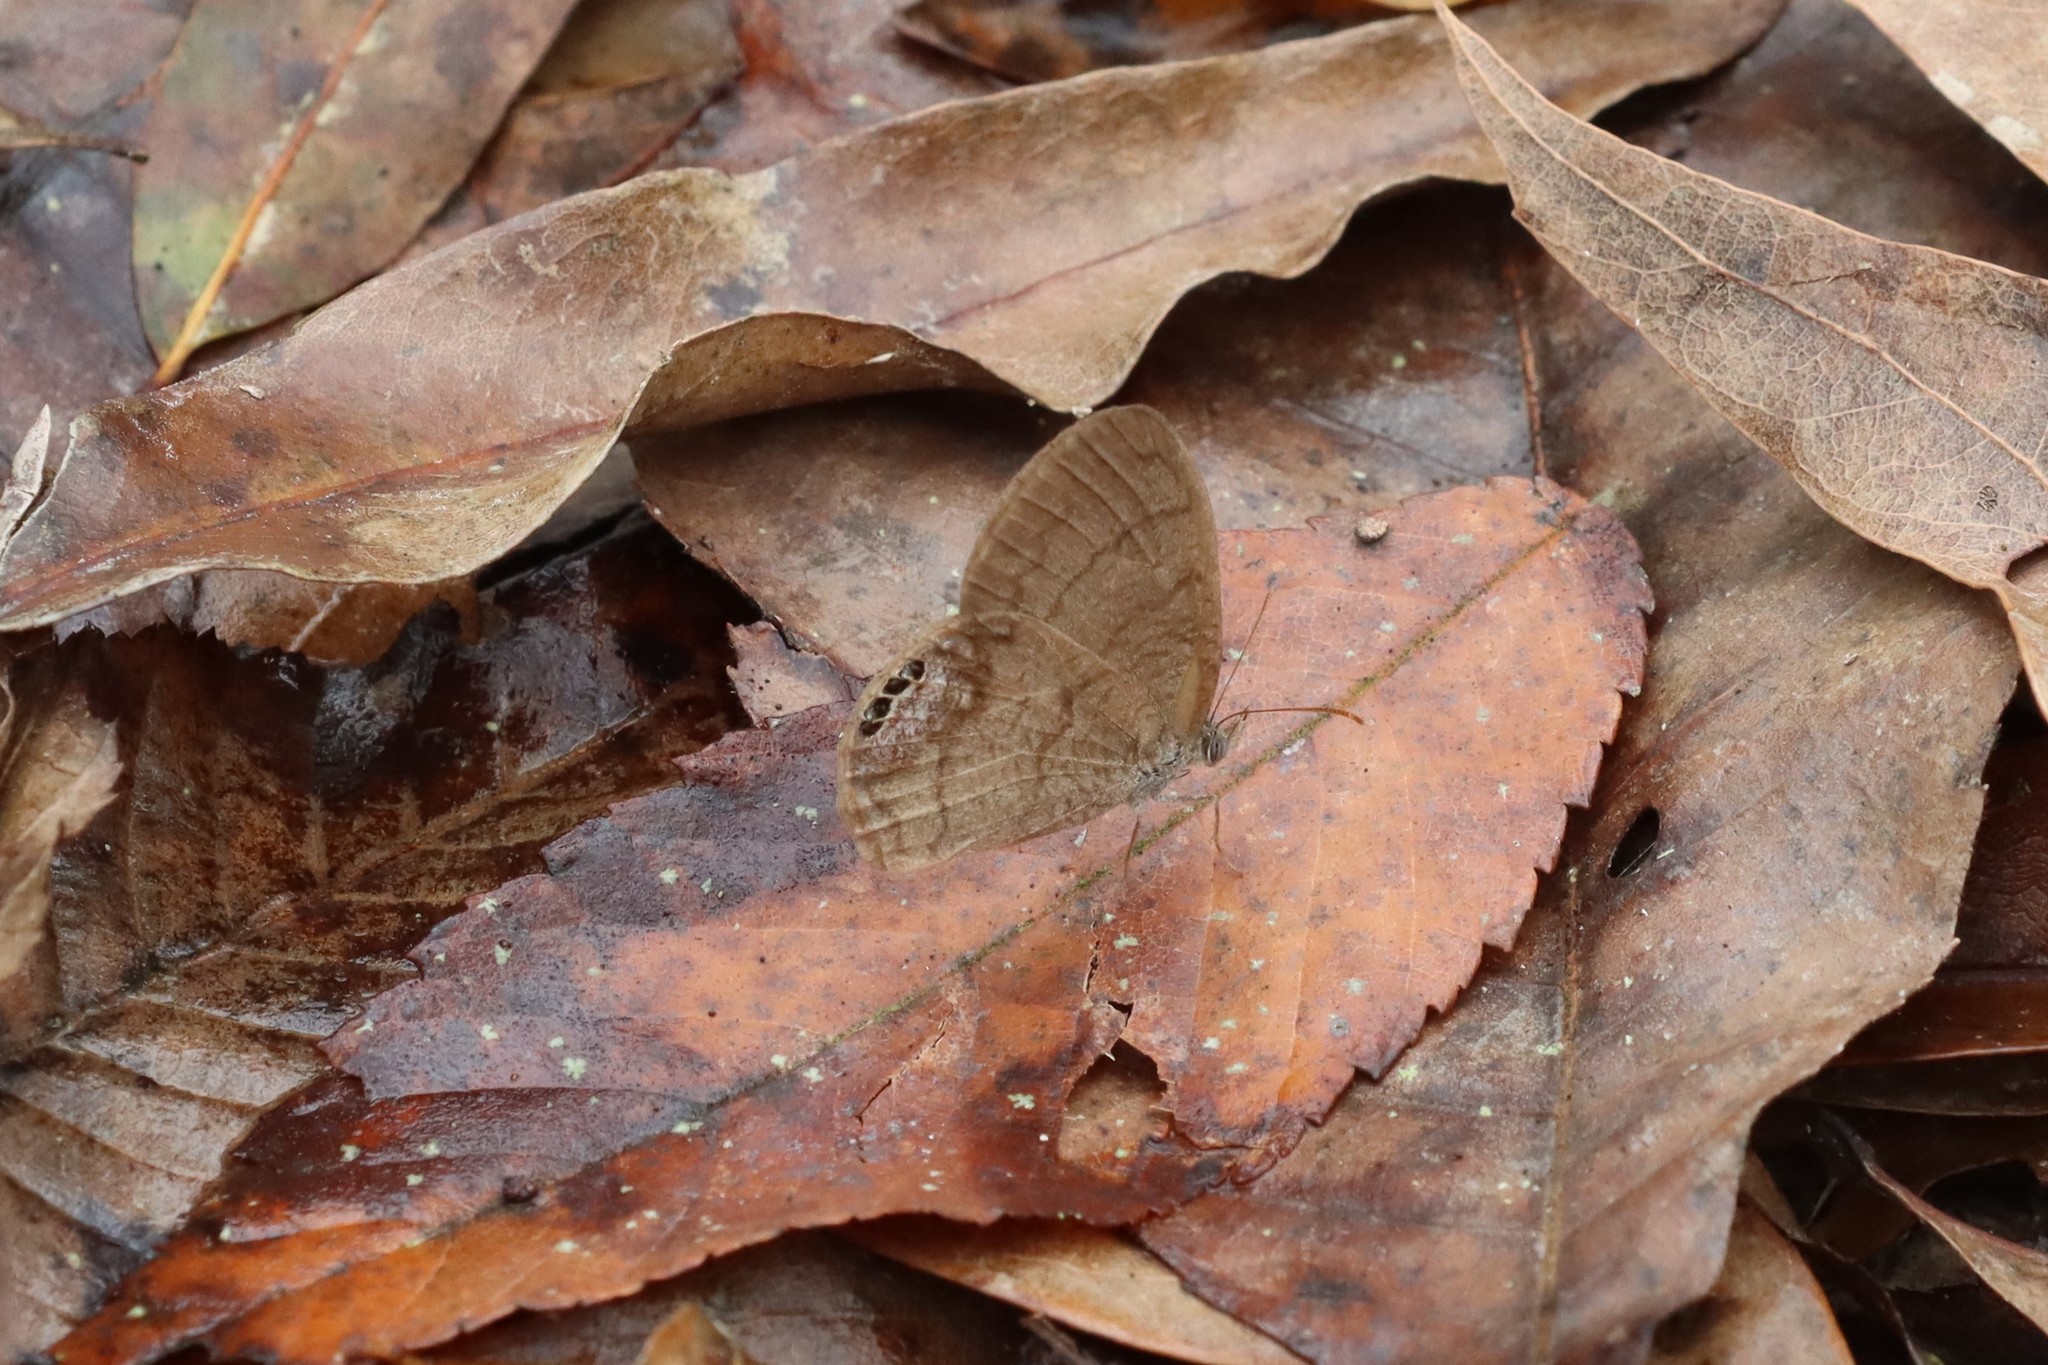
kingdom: Animalia
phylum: Arthropoda
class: Insecta
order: Lepidoptera
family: Nymphalidae
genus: Euptychia
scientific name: Euptychia cornelius
